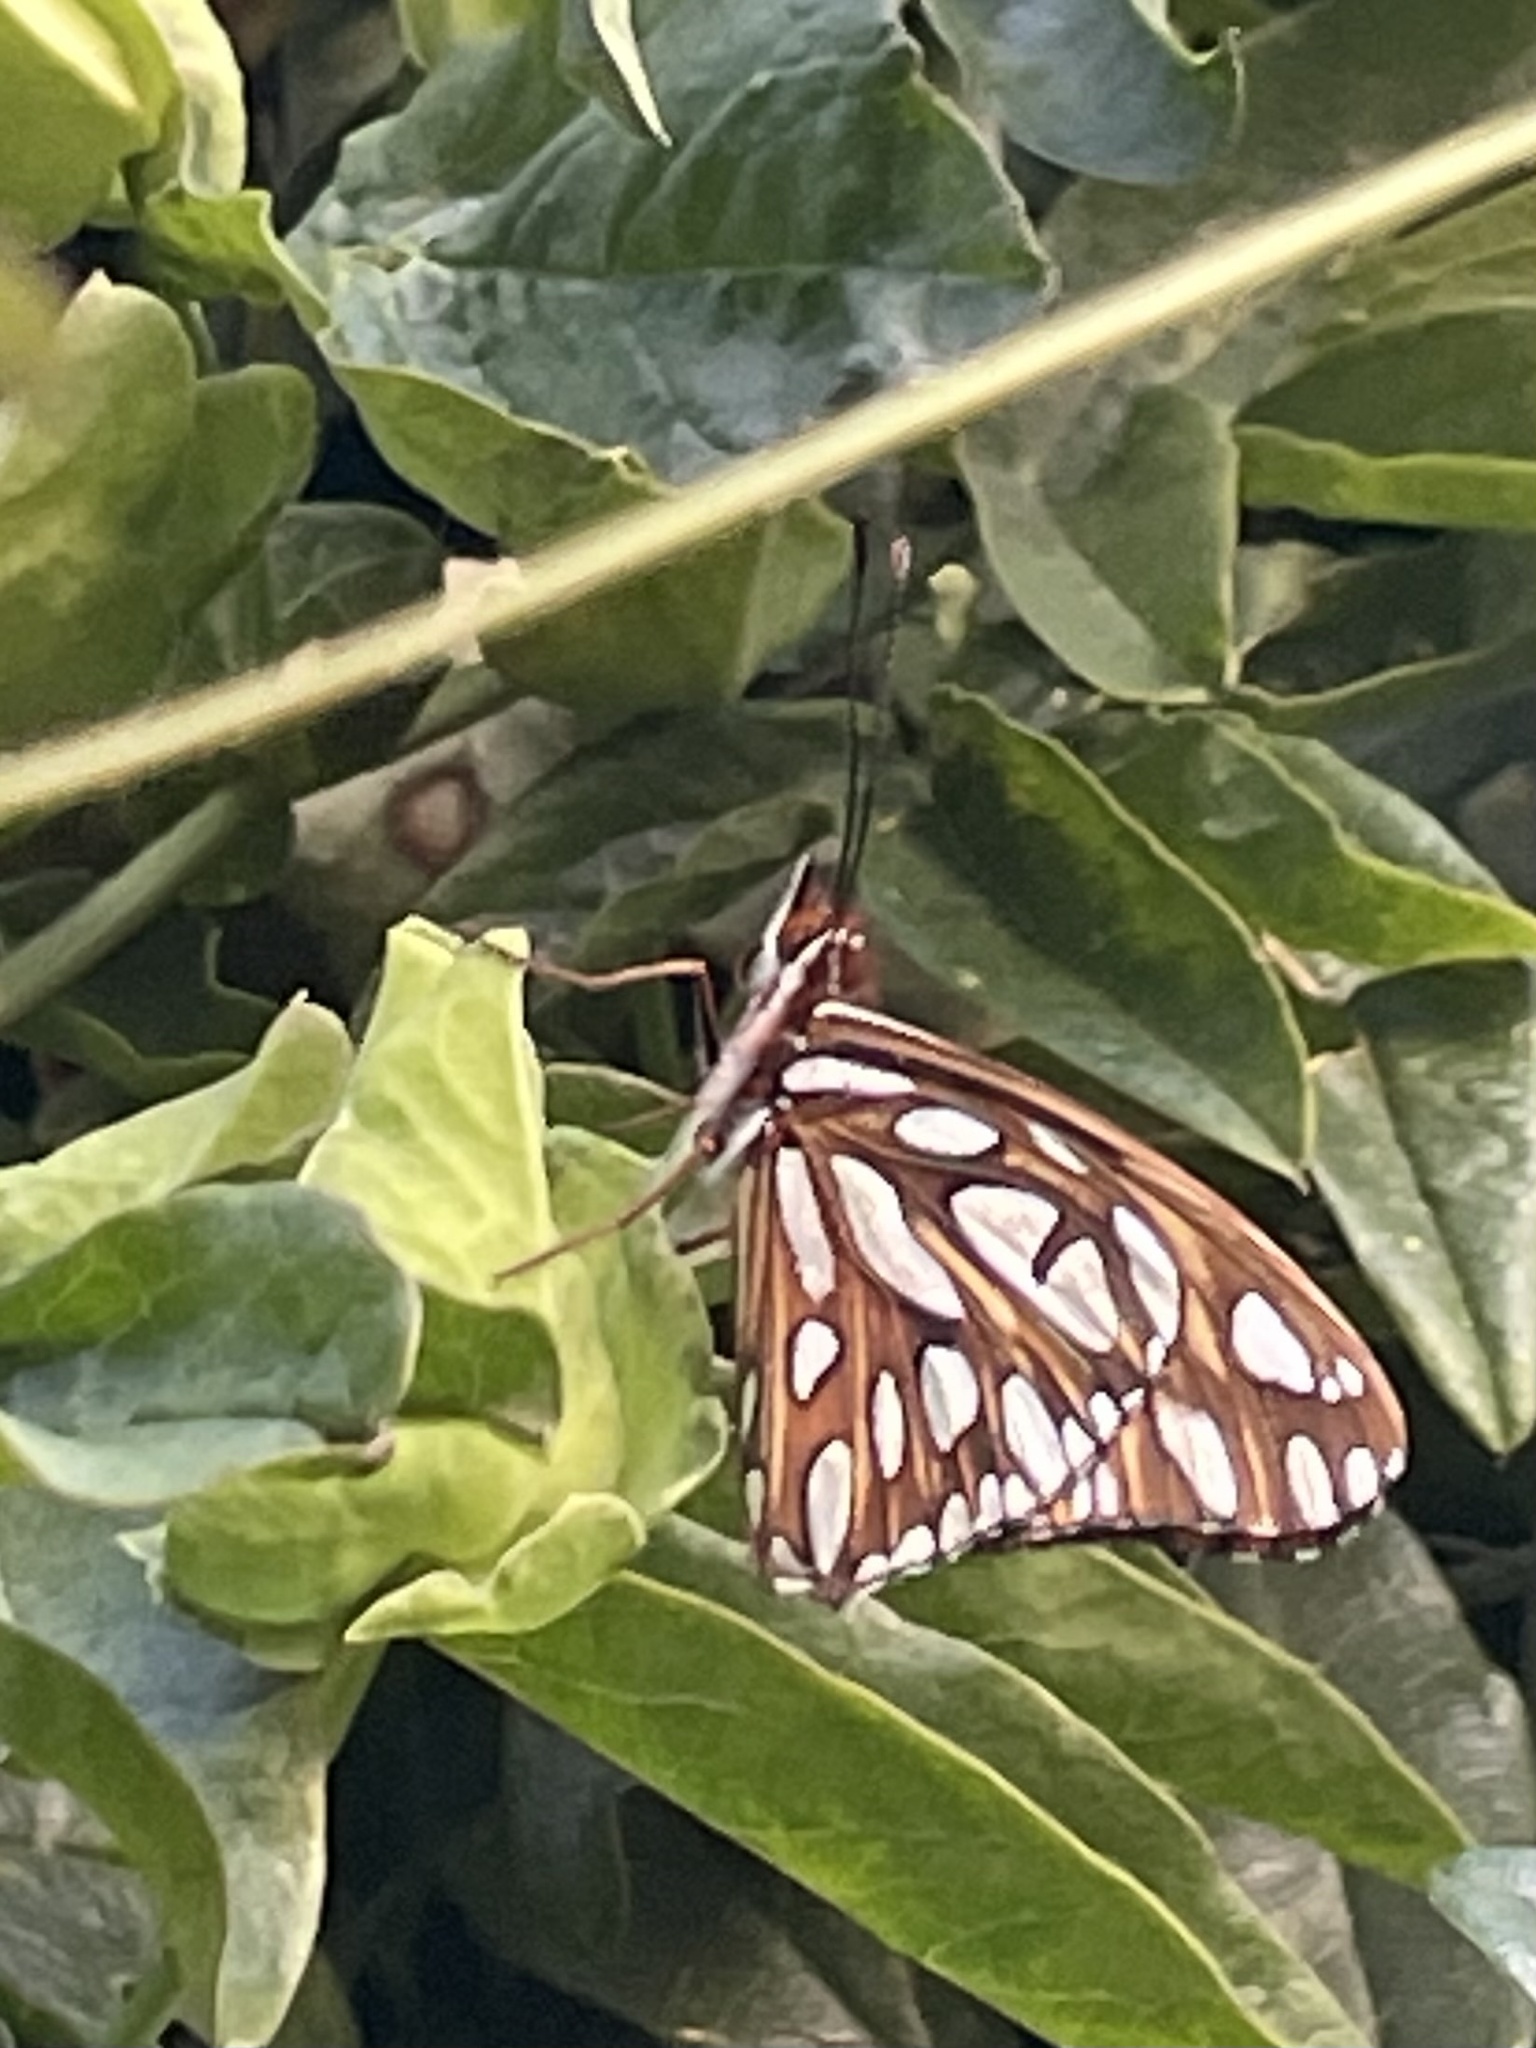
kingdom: Animalia
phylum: Arthropoda
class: Insecta
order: Lepidoptera
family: Nymphalidae
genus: Dione
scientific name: Dione vanillae
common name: Gulf fritillary
